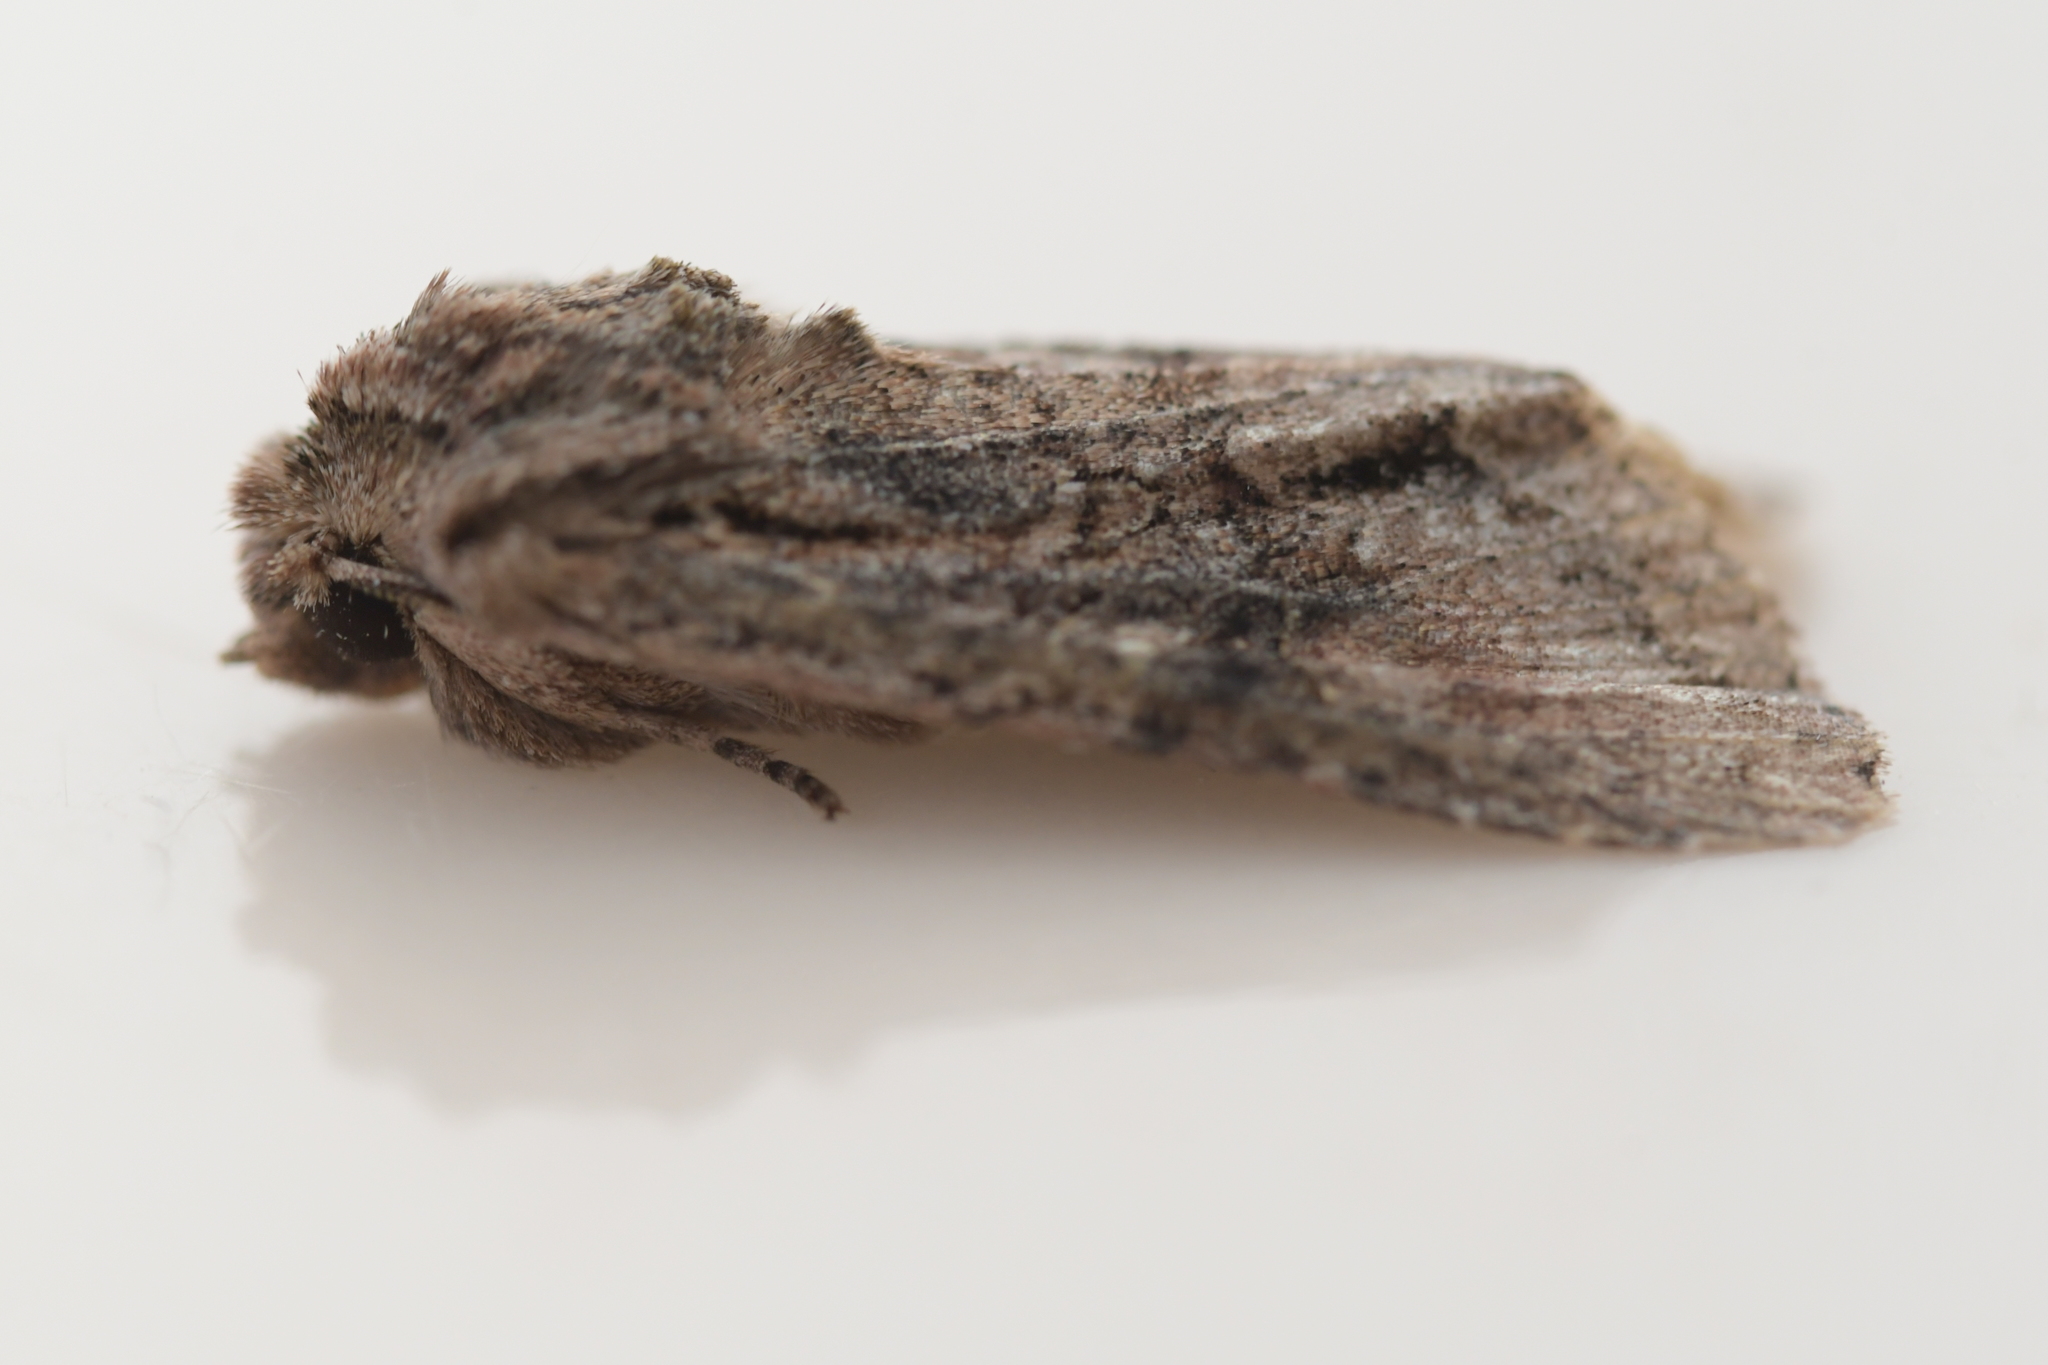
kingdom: Animalia
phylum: Arthropoda
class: Insecta
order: Lepidoptera
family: Noctuidae
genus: Ichneutica
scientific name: Ichneutica mutans
